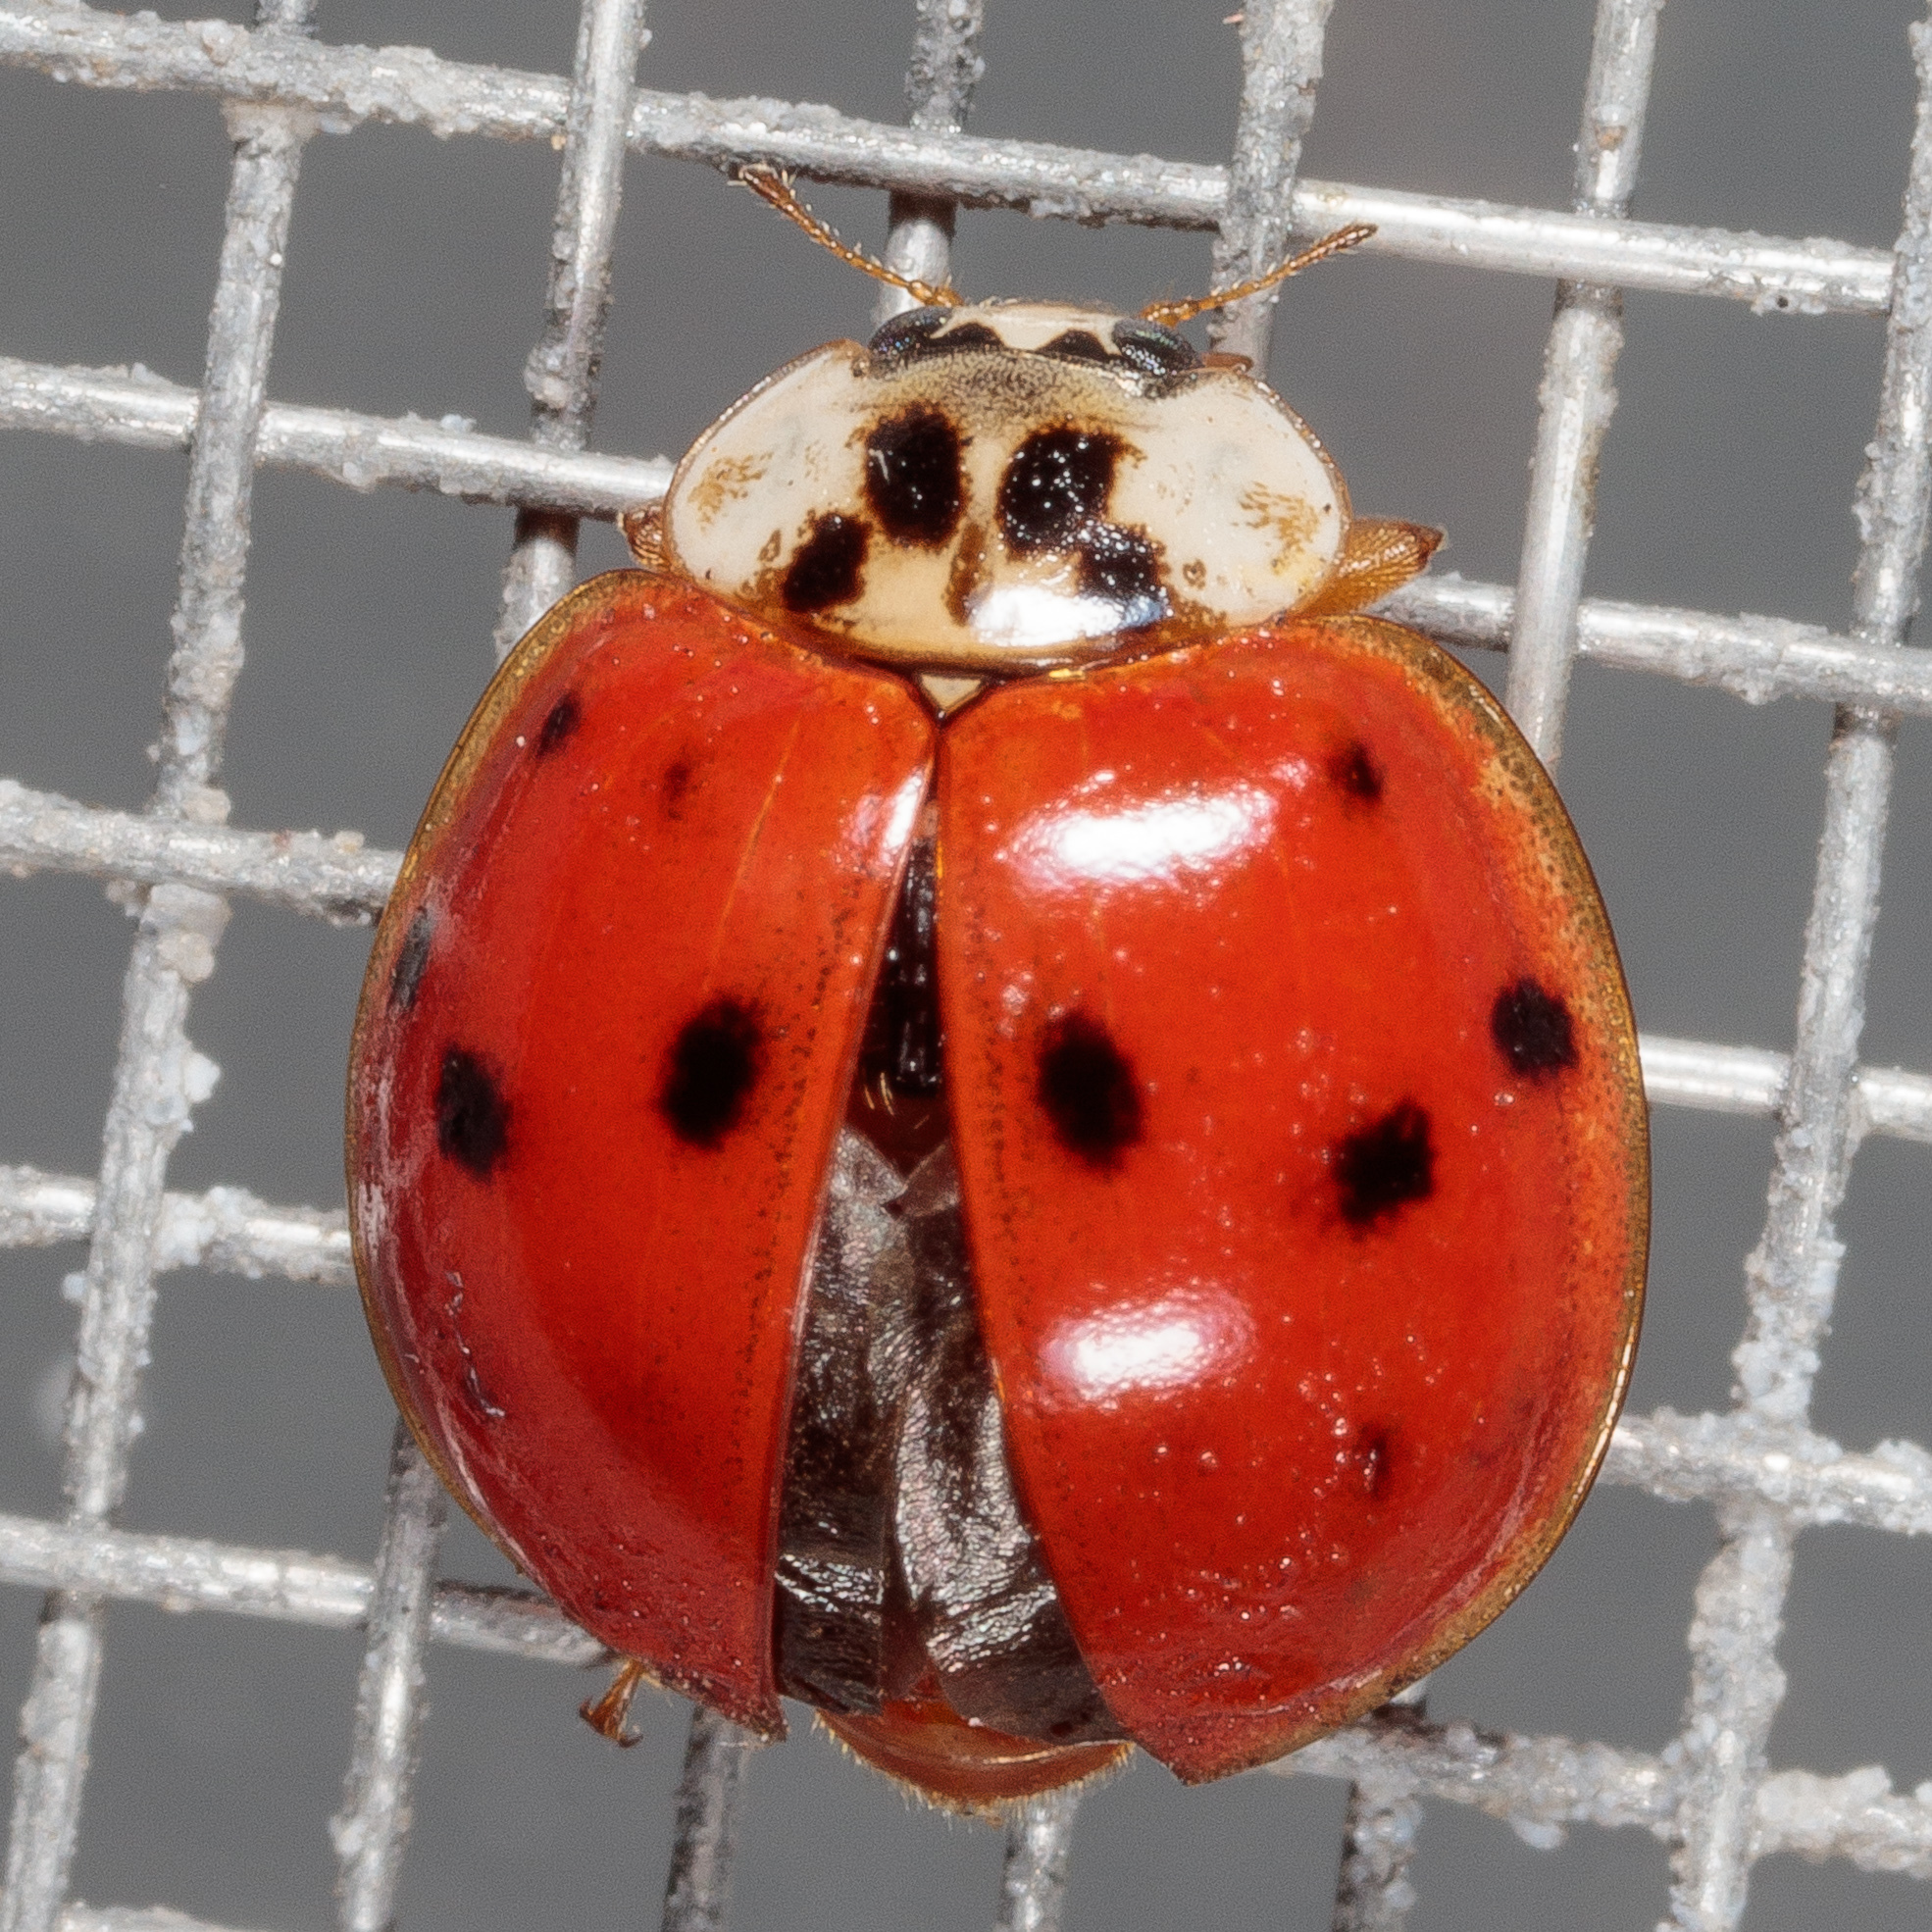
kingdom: Animalia
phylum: Arthropoda
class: Insecta
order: Coleoptera
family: Coccinellidae
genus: Harmonia
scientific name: Harmonia axyridis
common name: Harlequin ladybird
